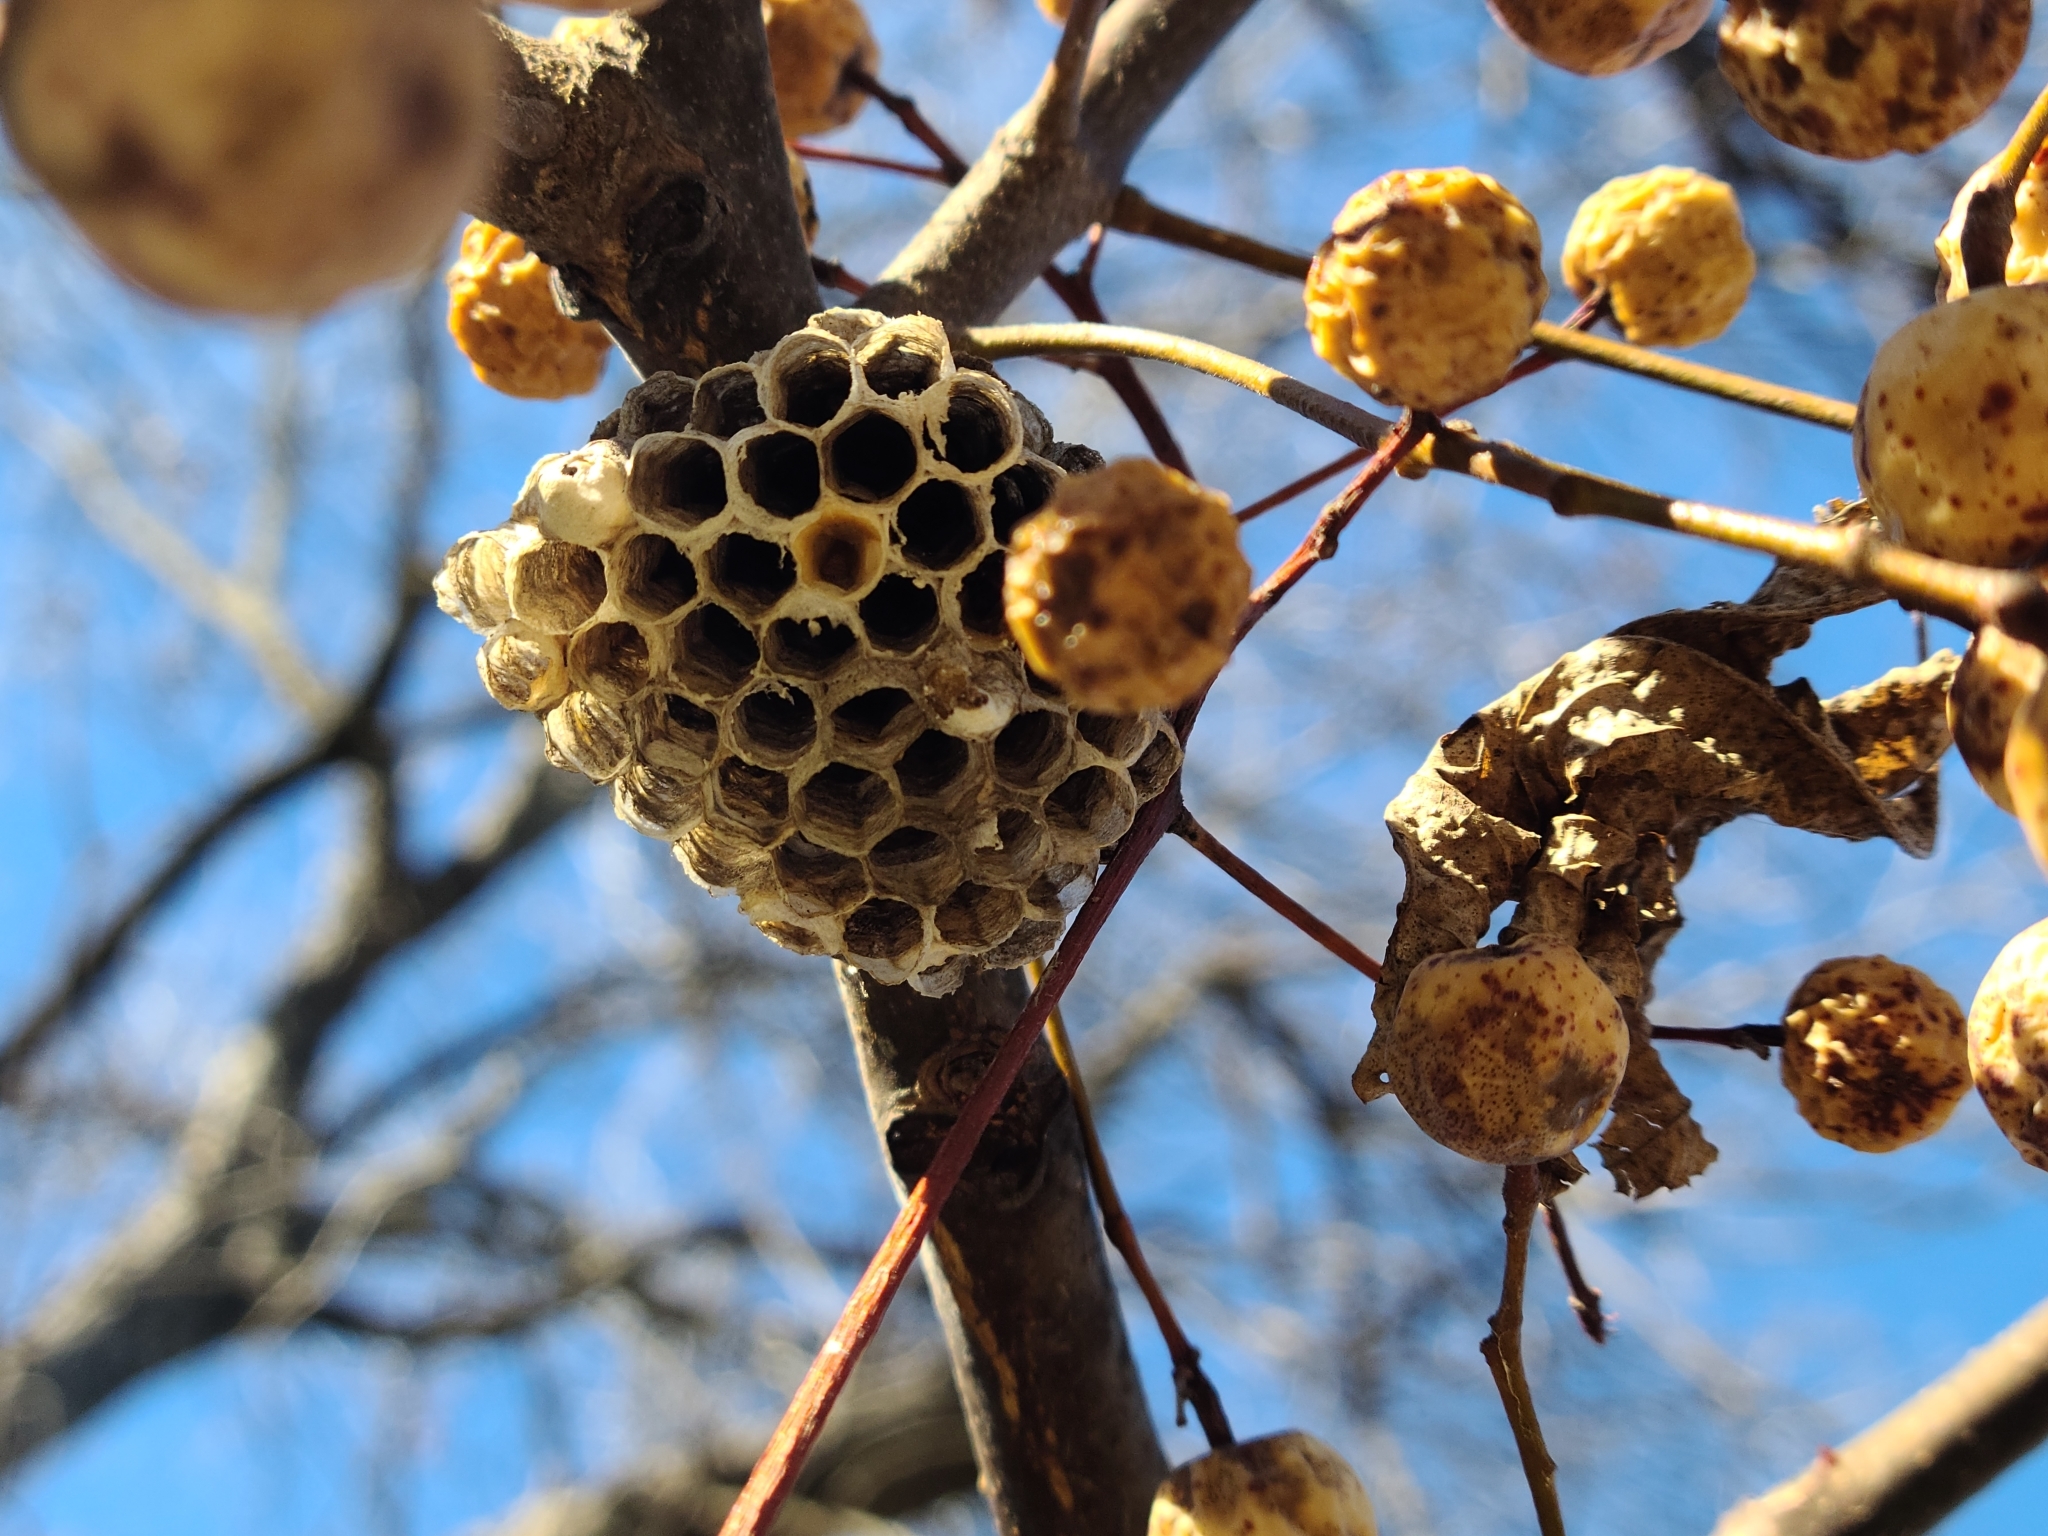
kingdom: Animalia
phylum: Arthropoda
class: Insecta
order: Hymenoptera
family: Eumenidae
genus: Polistes
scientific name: Polistes
